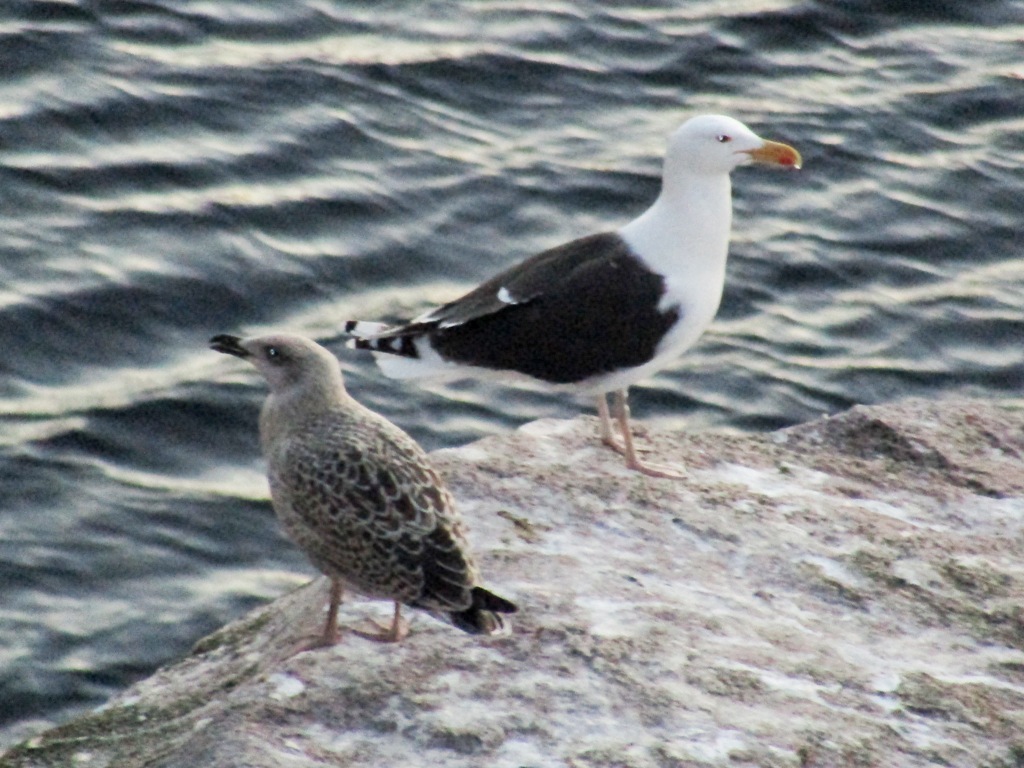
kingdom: Animalia
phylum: Chordata
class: Aves
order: Charadriiformes
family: Laridae
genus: Larus
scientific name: Larus marinus
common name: Great black-backed gull
